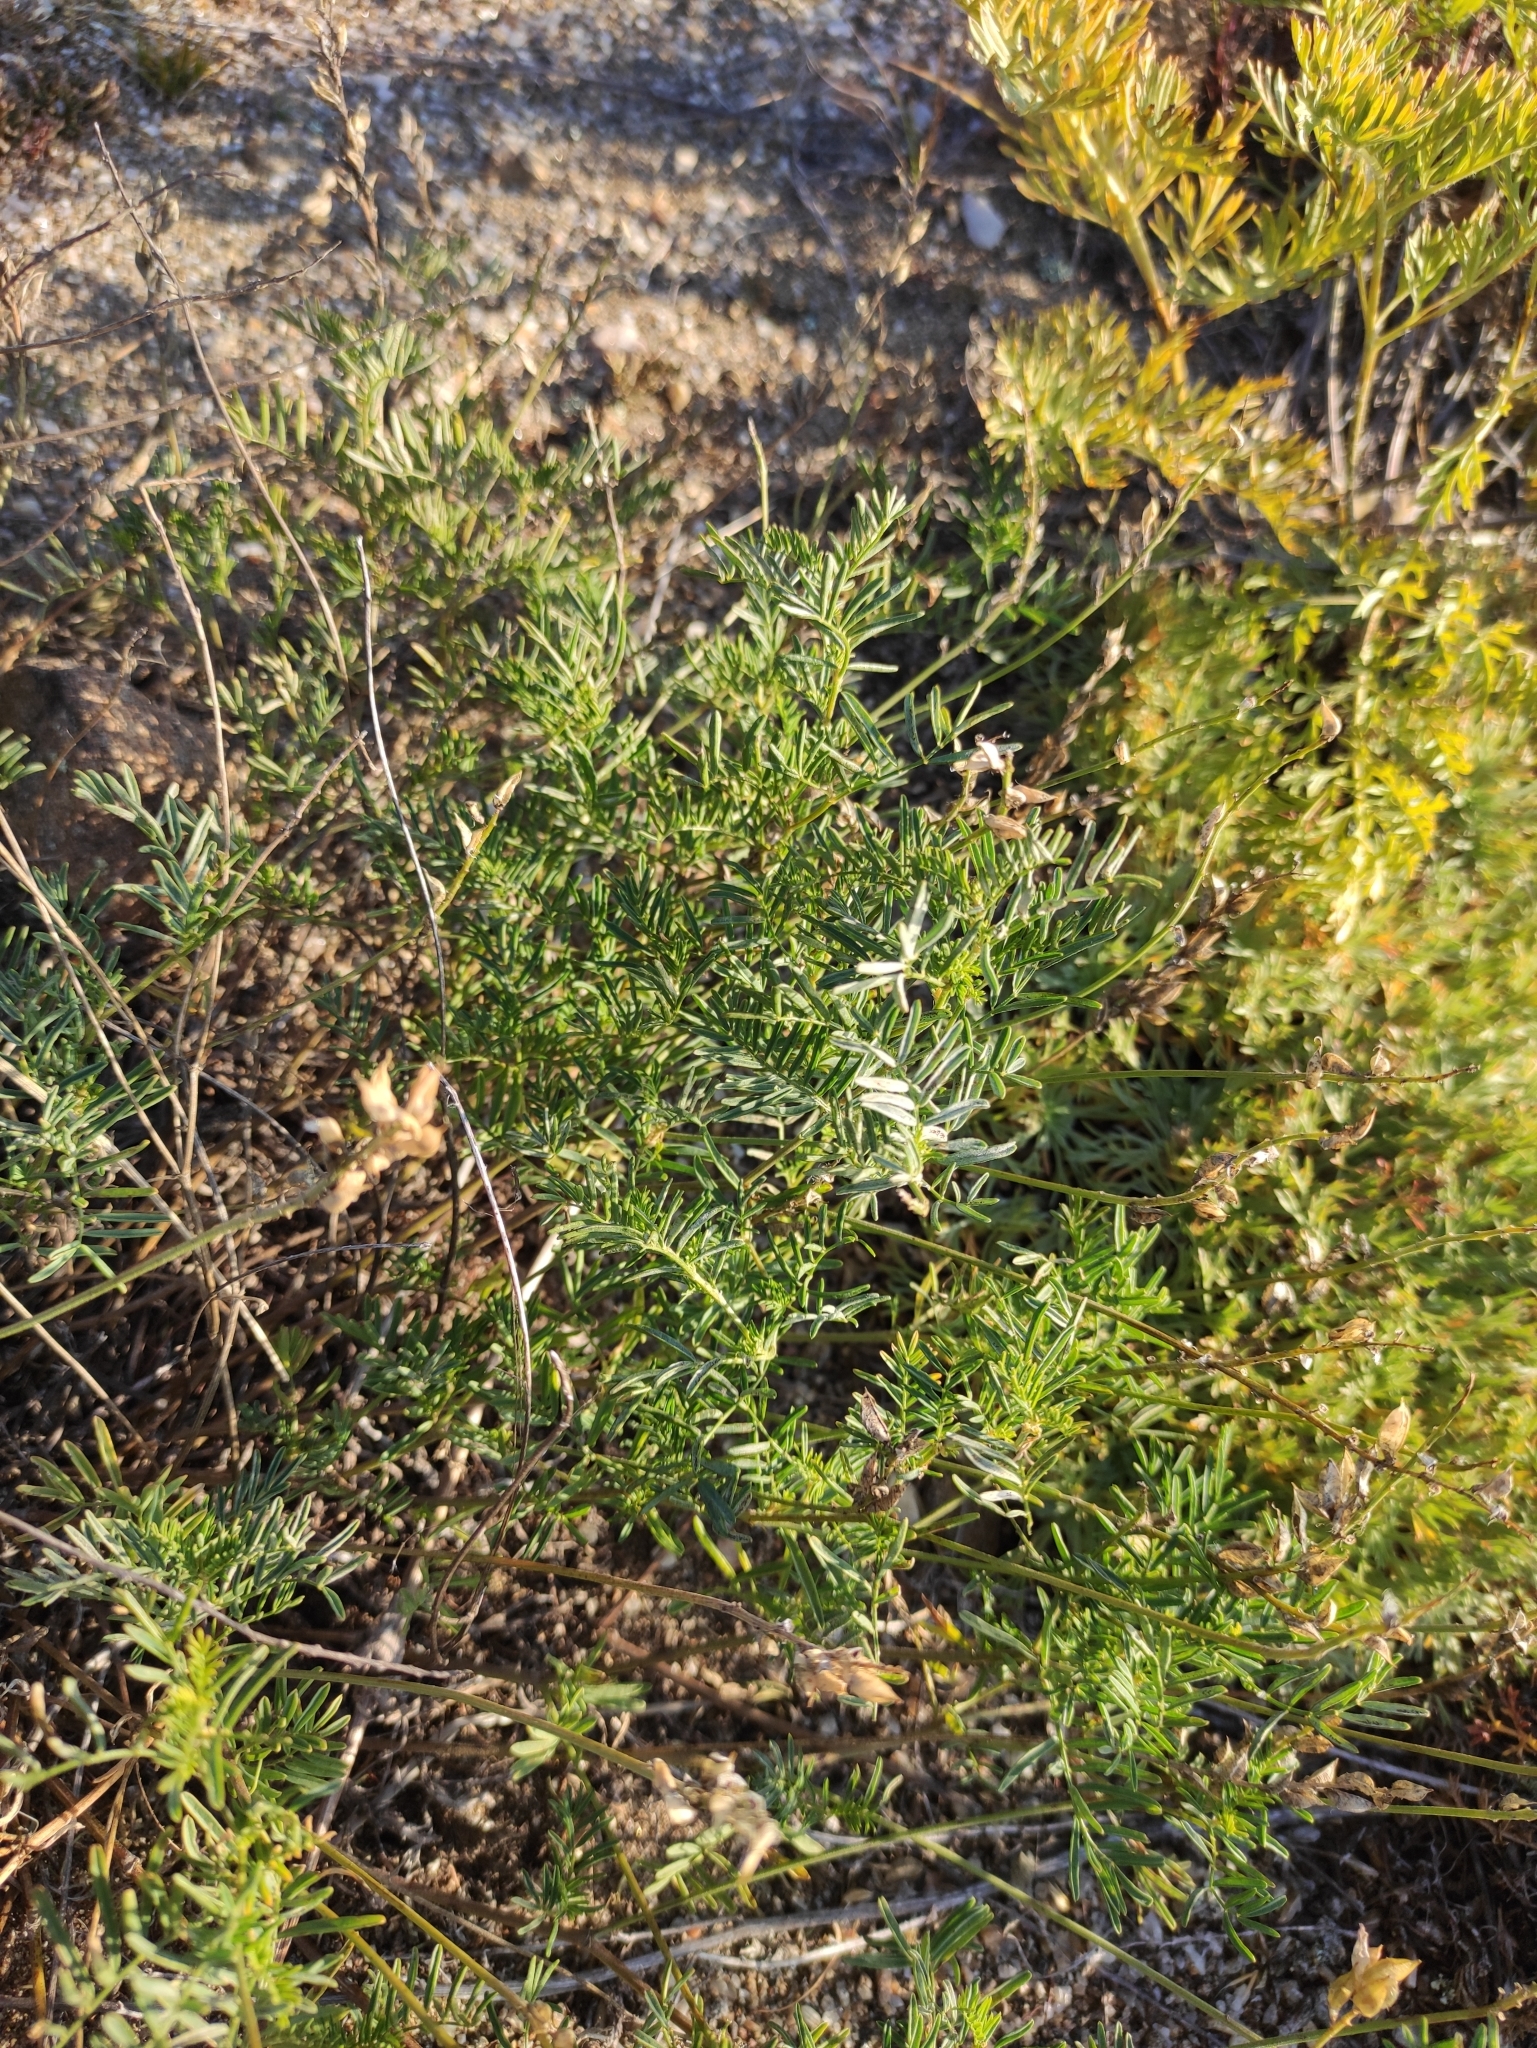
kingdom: Plantae
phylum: Tracheophyta
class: Magnoliopsida
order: Fabales
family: Fabaceae
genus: Astragalus
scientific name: Astragalus versicolor
